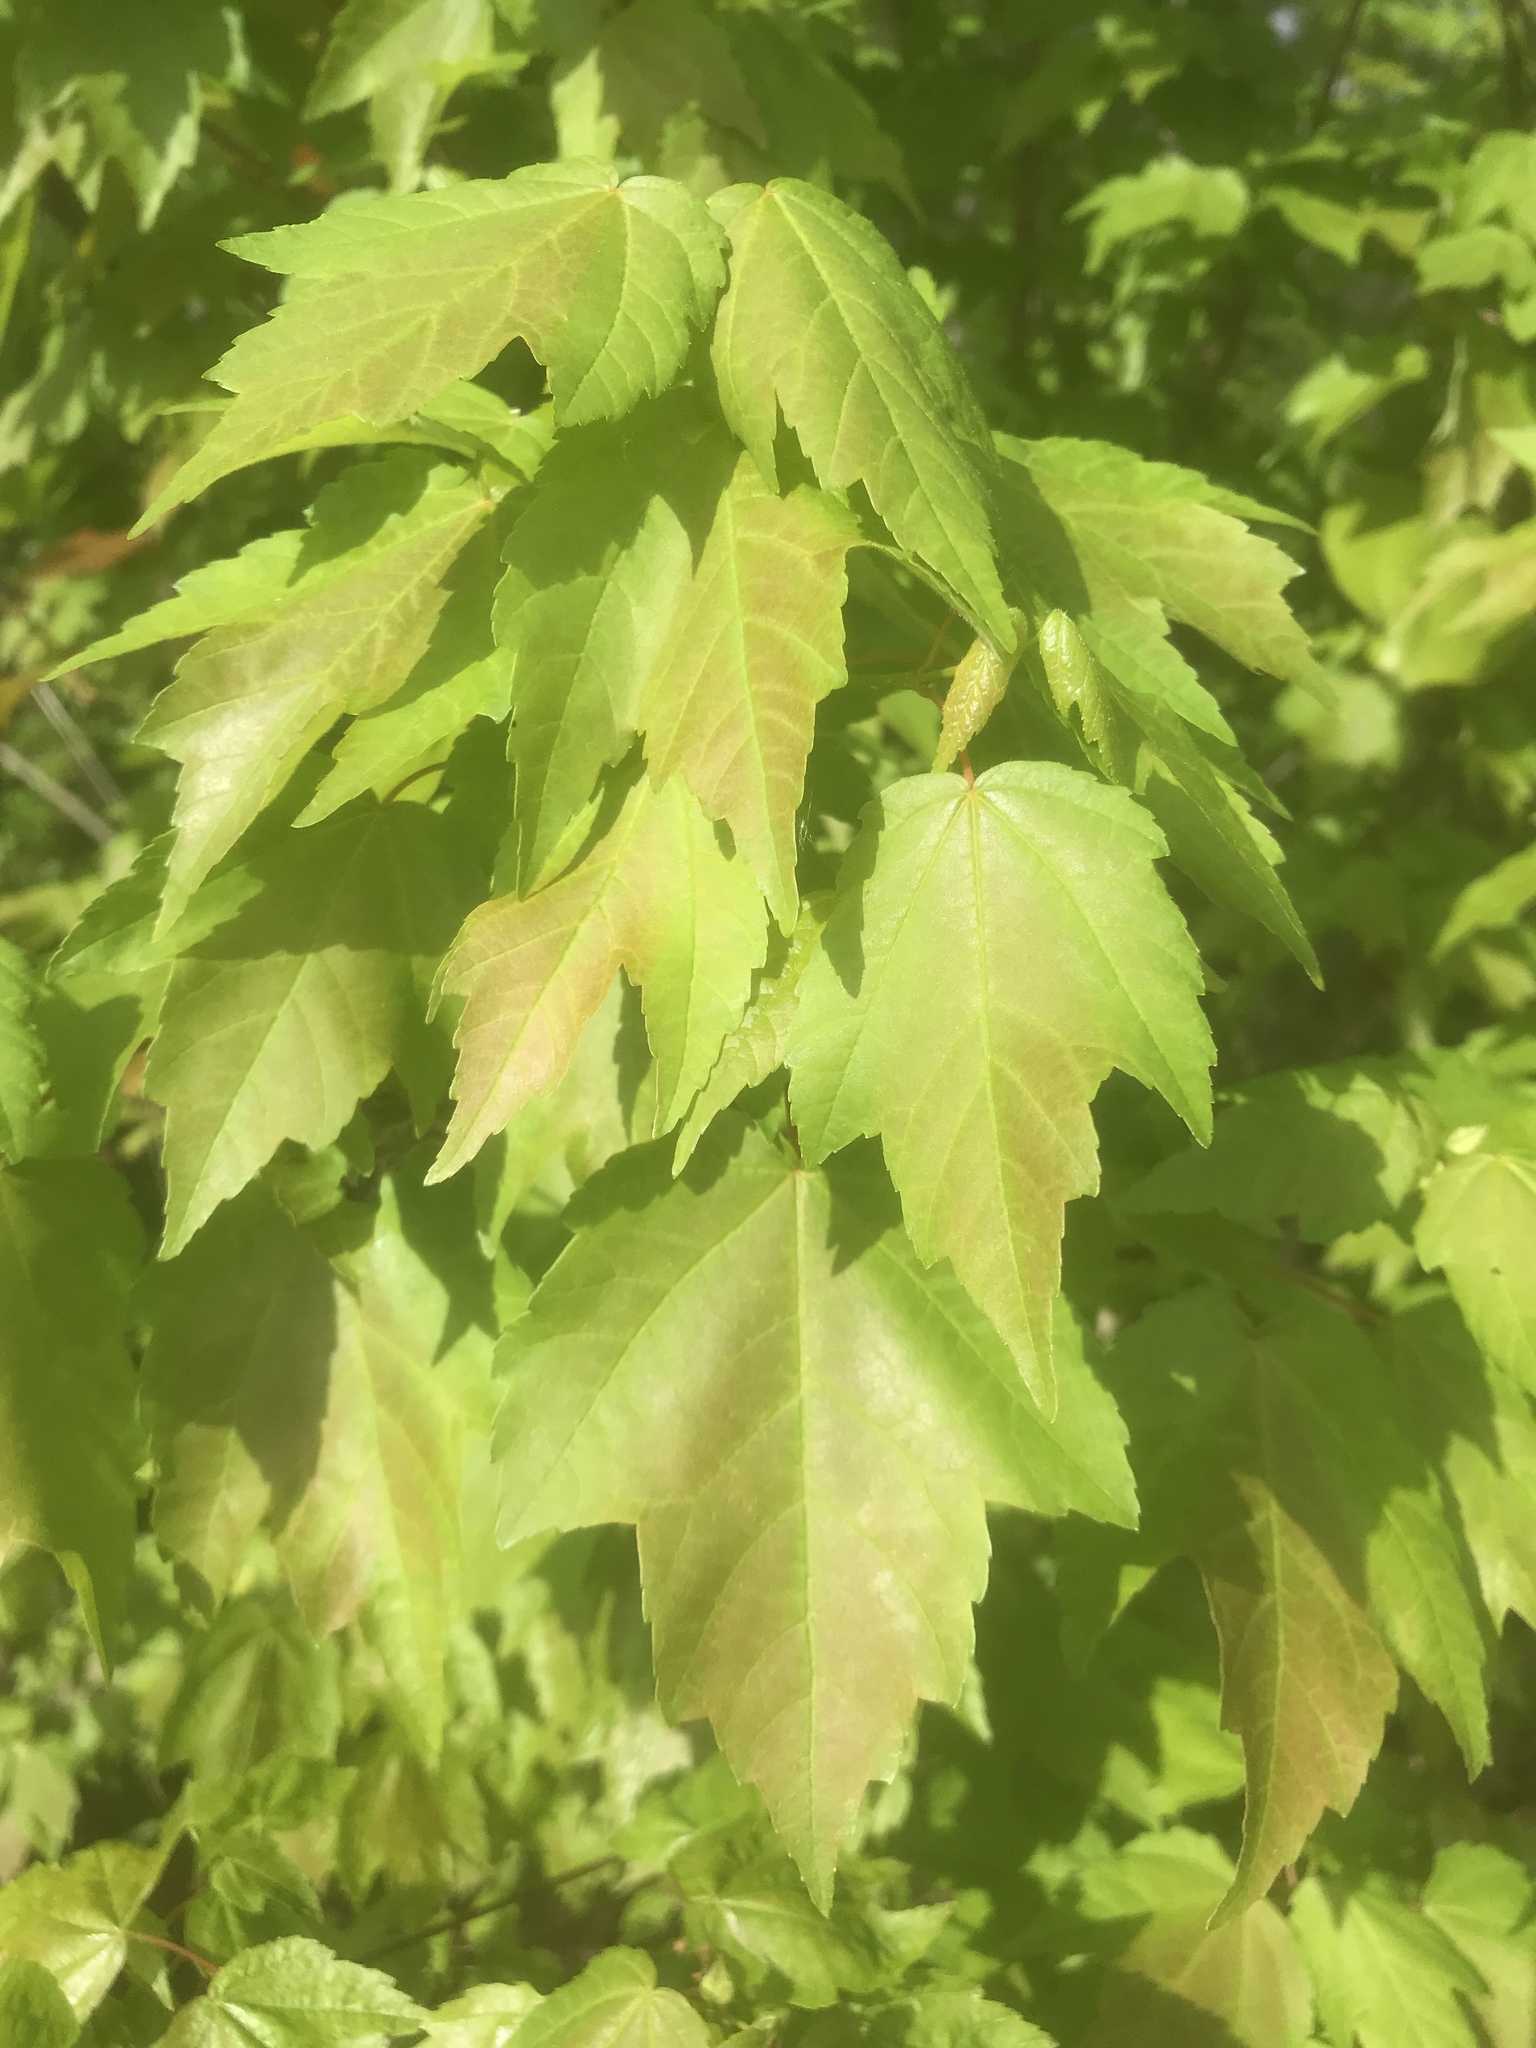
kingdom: Plantae
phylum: Tracheophyta
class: Magnoliopsida
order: Sapindales
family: Sapindaceae
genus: Acer
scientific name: Acer rubrum
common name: Red maple
